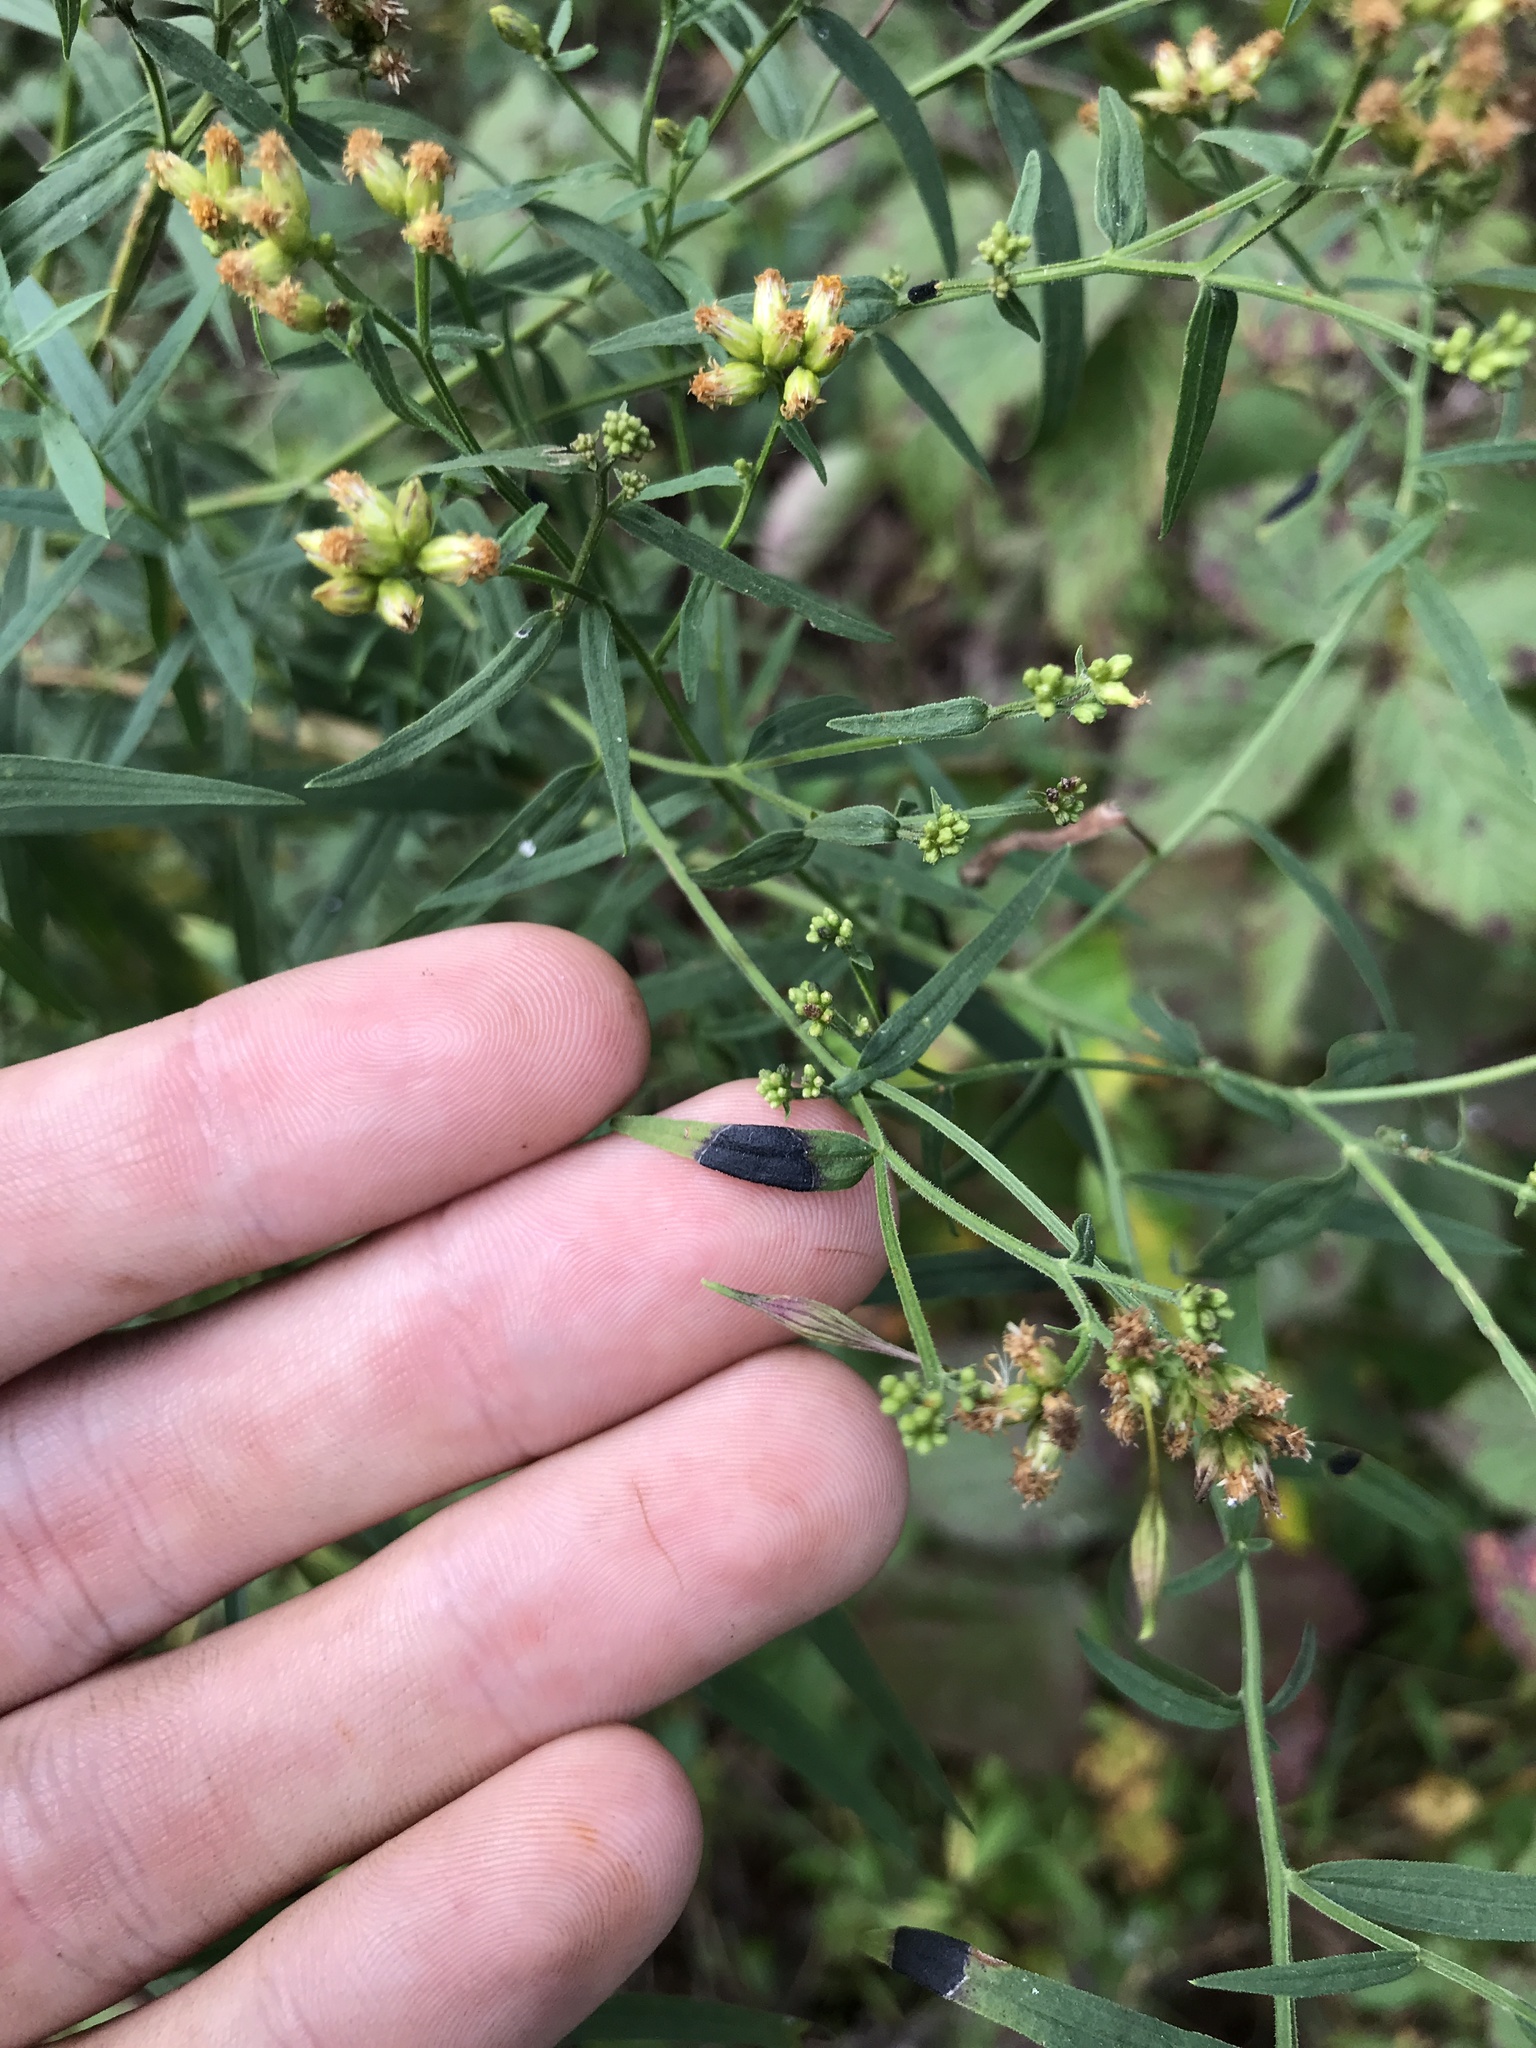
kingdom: Plantae
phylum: Tracheophyta
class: Magnoliopsida
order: Asterales
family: Asteraceae
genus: Euthamia
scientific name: Euthamia graminifolia
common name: Common goldentop
